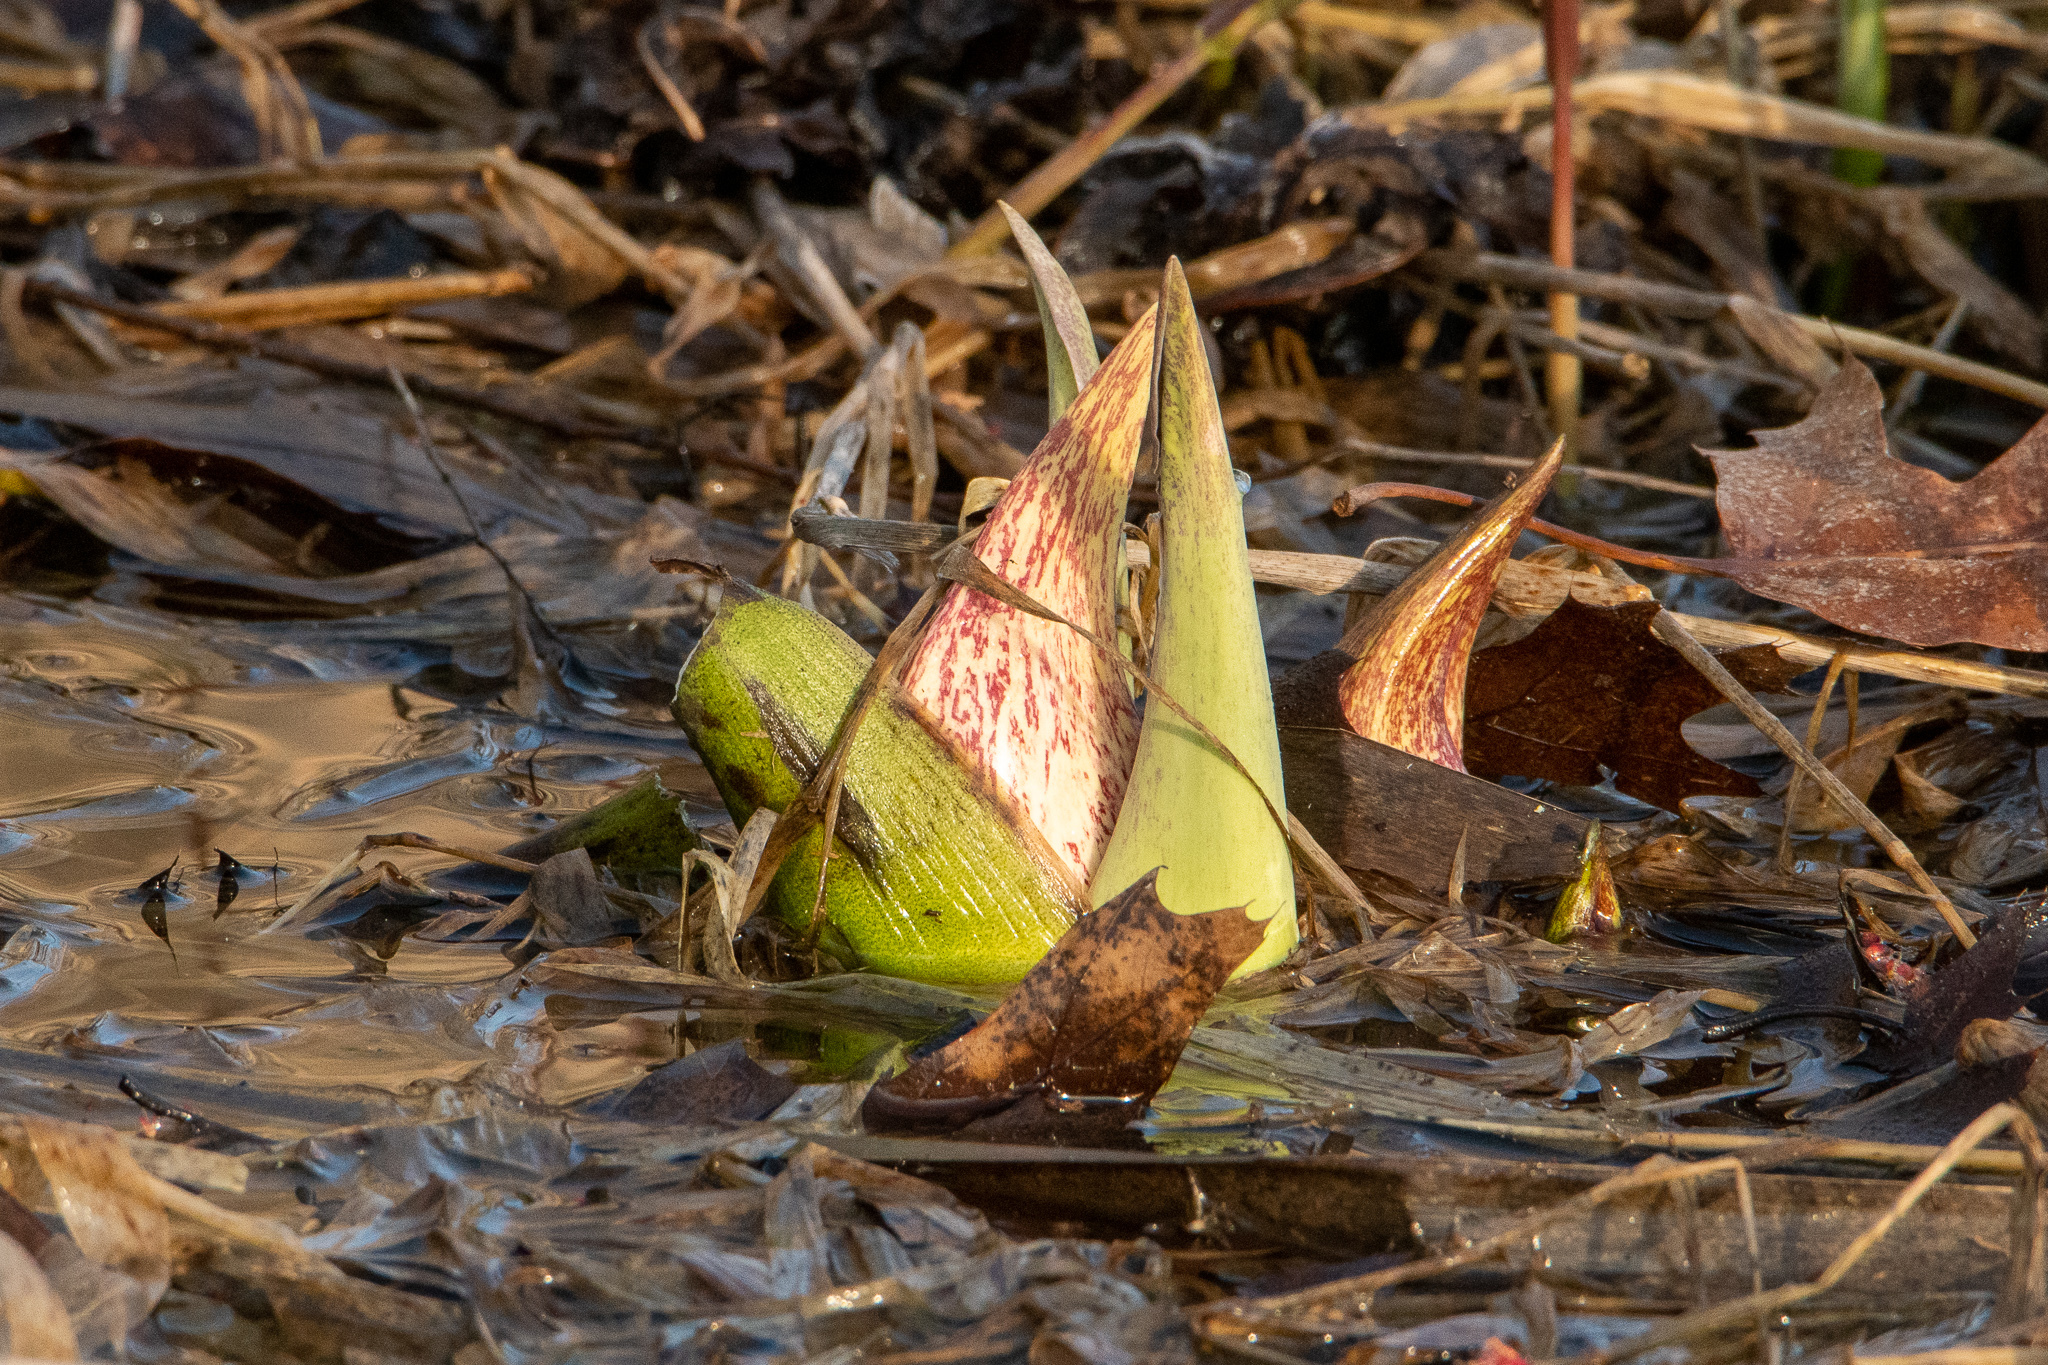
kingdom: Plantae
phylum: Tracheophyta
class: Liliopsida
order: Alismatales
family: Araceae
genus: Symplocarpus
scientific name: Symplocarpus foetidus
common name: Eastern skunk cabbage
